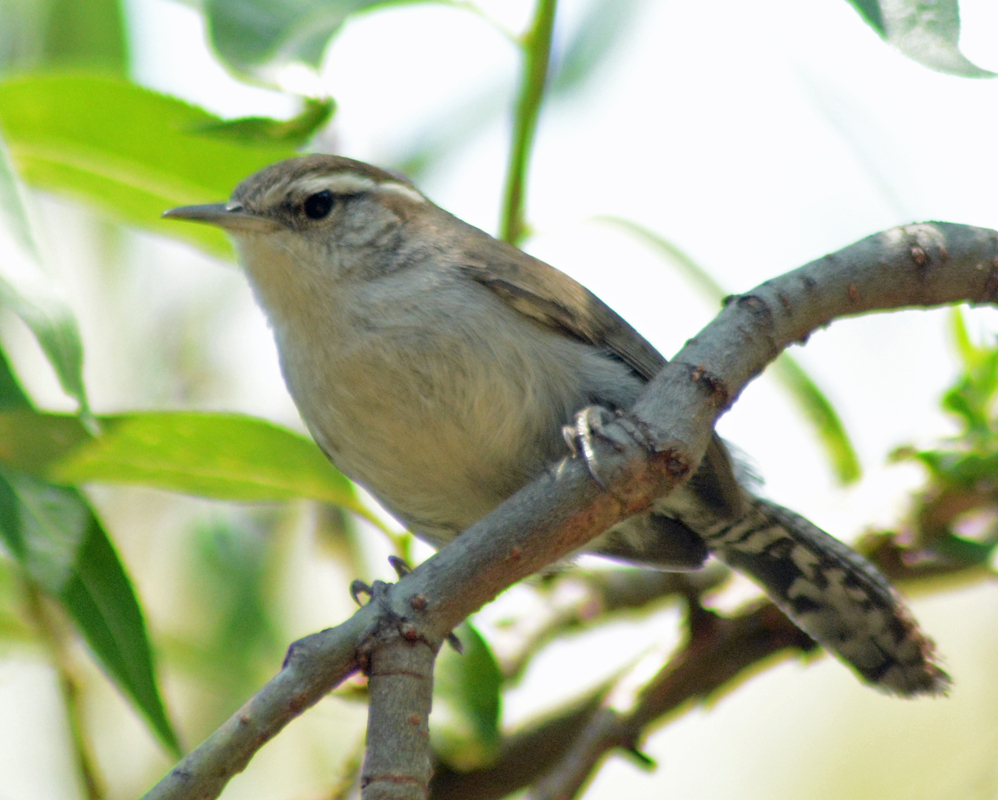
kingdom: Animalia
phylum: Chordata
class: Aves
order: Passeriformes
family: Troglodytidae
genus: Thryomanes
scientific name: Thryomanes bewickii
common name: Bewick's wren
